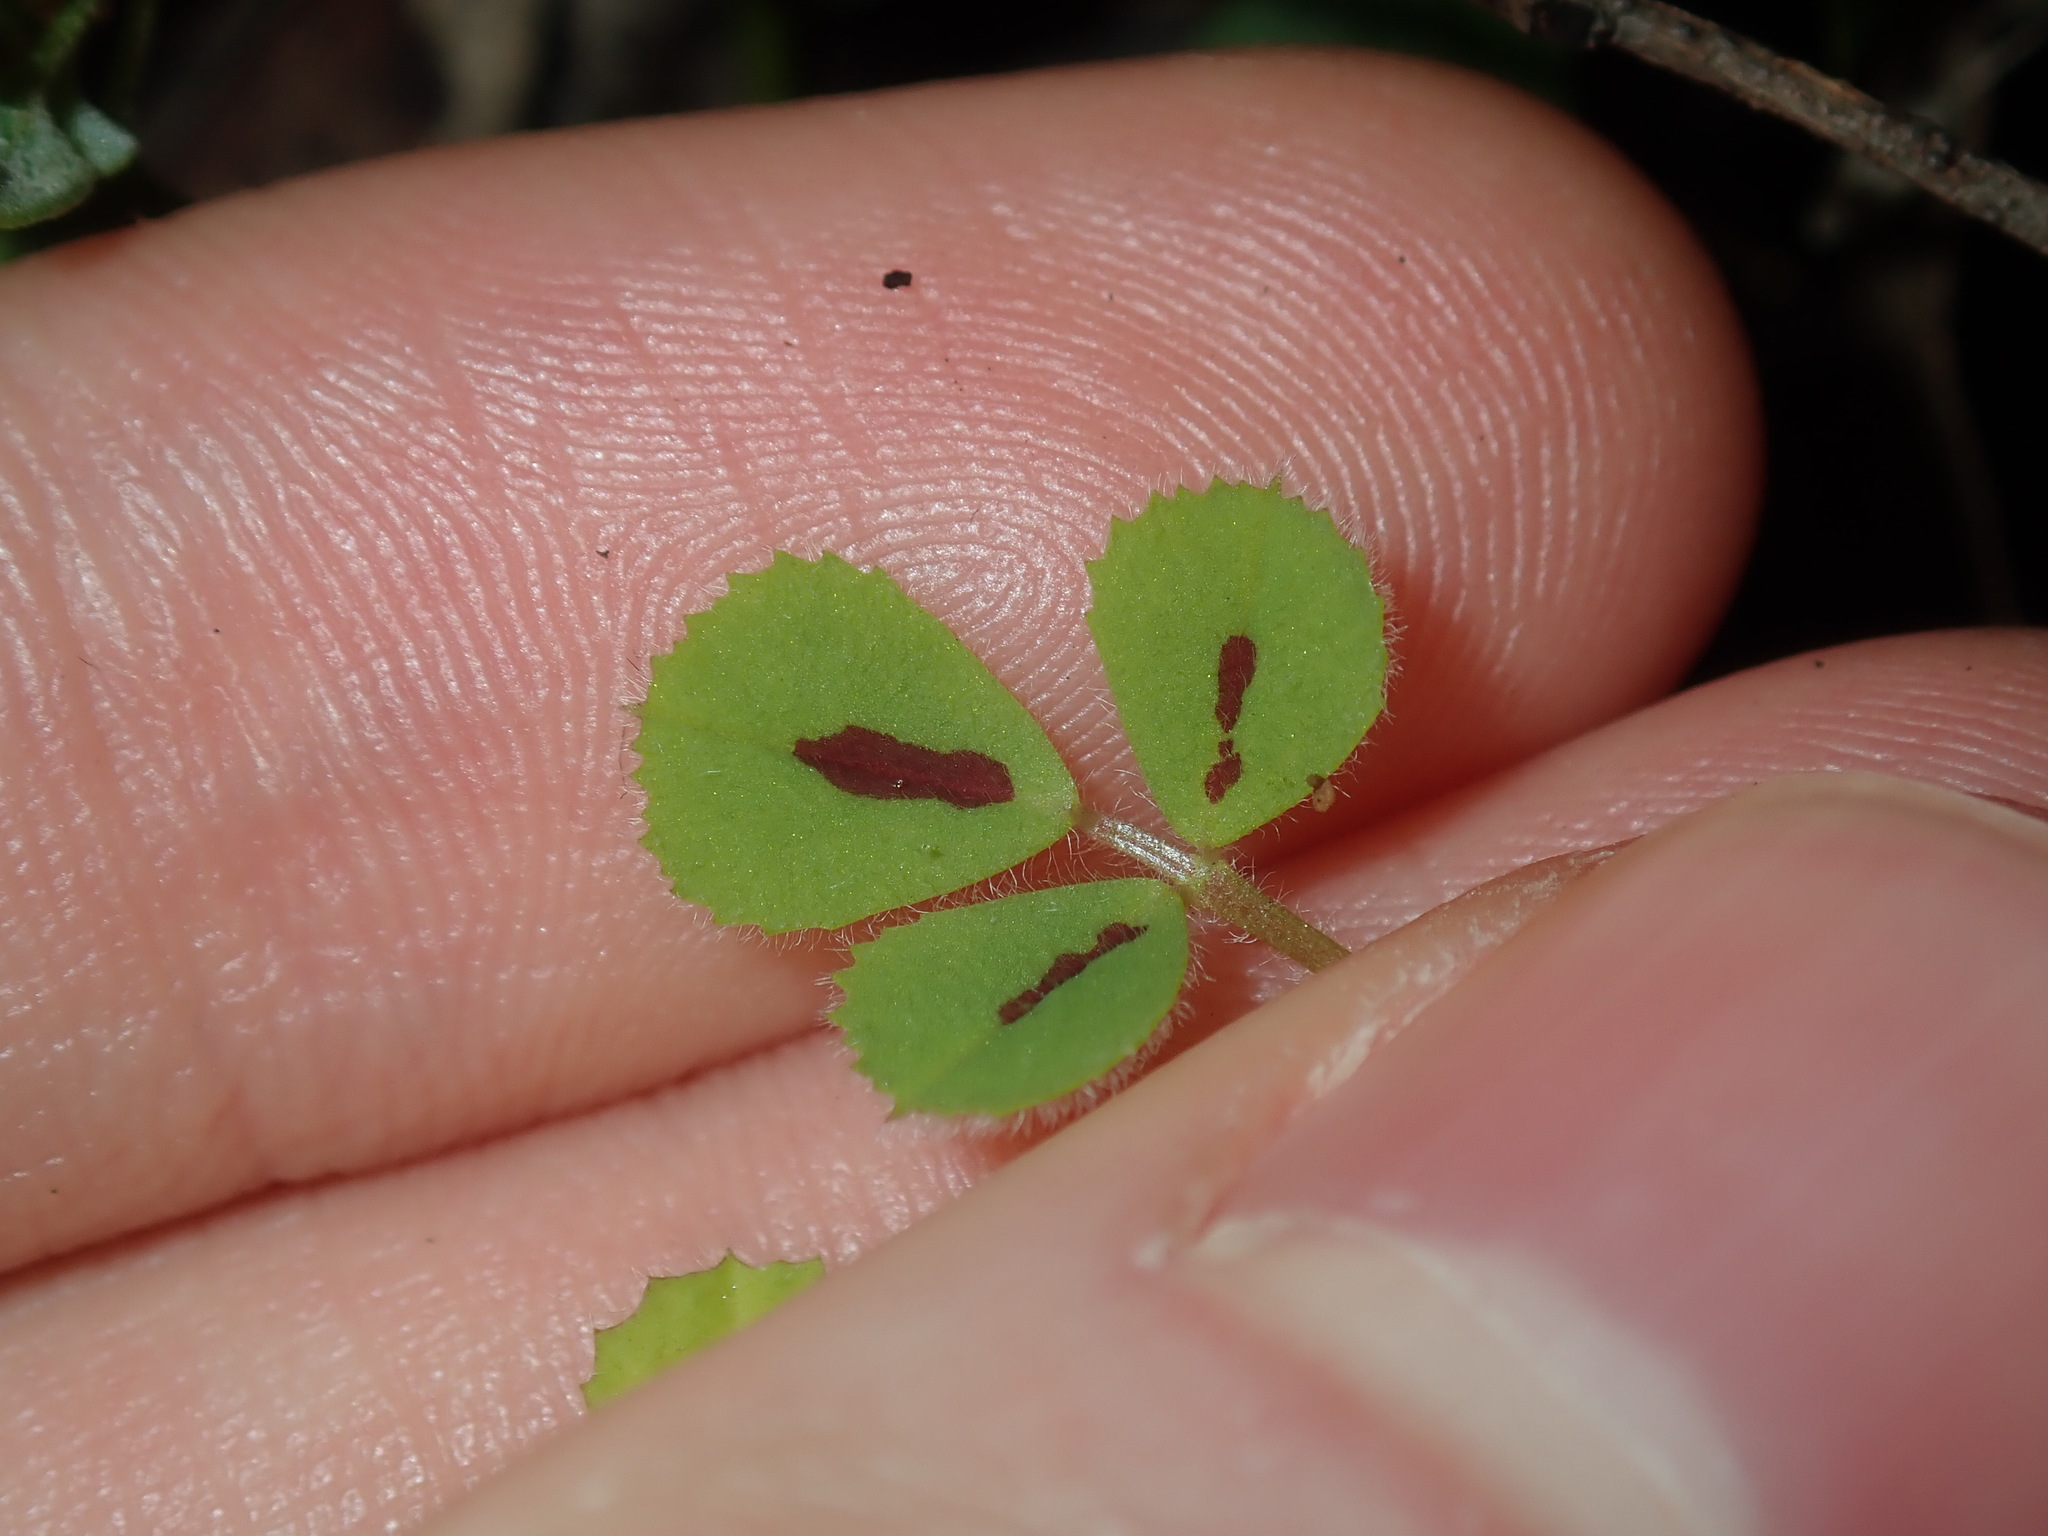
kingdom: Plantae
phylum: Tracheophyta
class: Magnoliopsida
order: Fabales
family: Fabaceae
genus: Medicago
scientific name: Medicago truncatula
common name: Strong-spined medick
